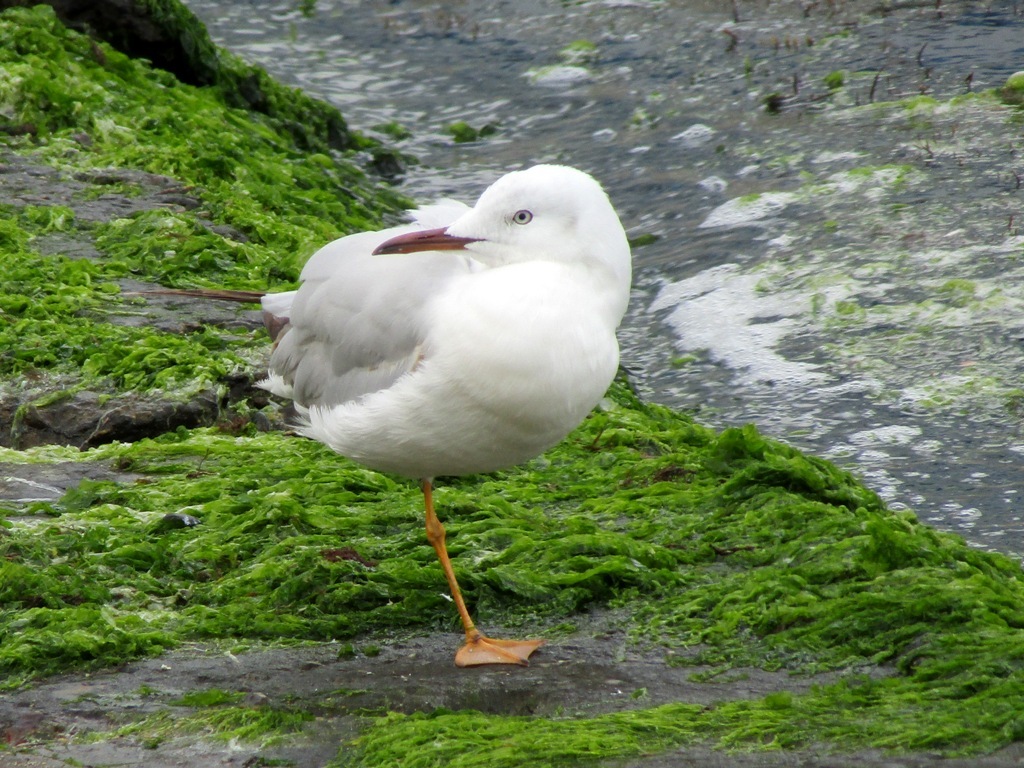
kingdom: Animalia
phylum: Chordata
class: Aves
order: Charadriiformes
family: Laridae
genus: Chroicocephalus
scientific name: Chroicocephalus genei
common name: Slender-billed gull
